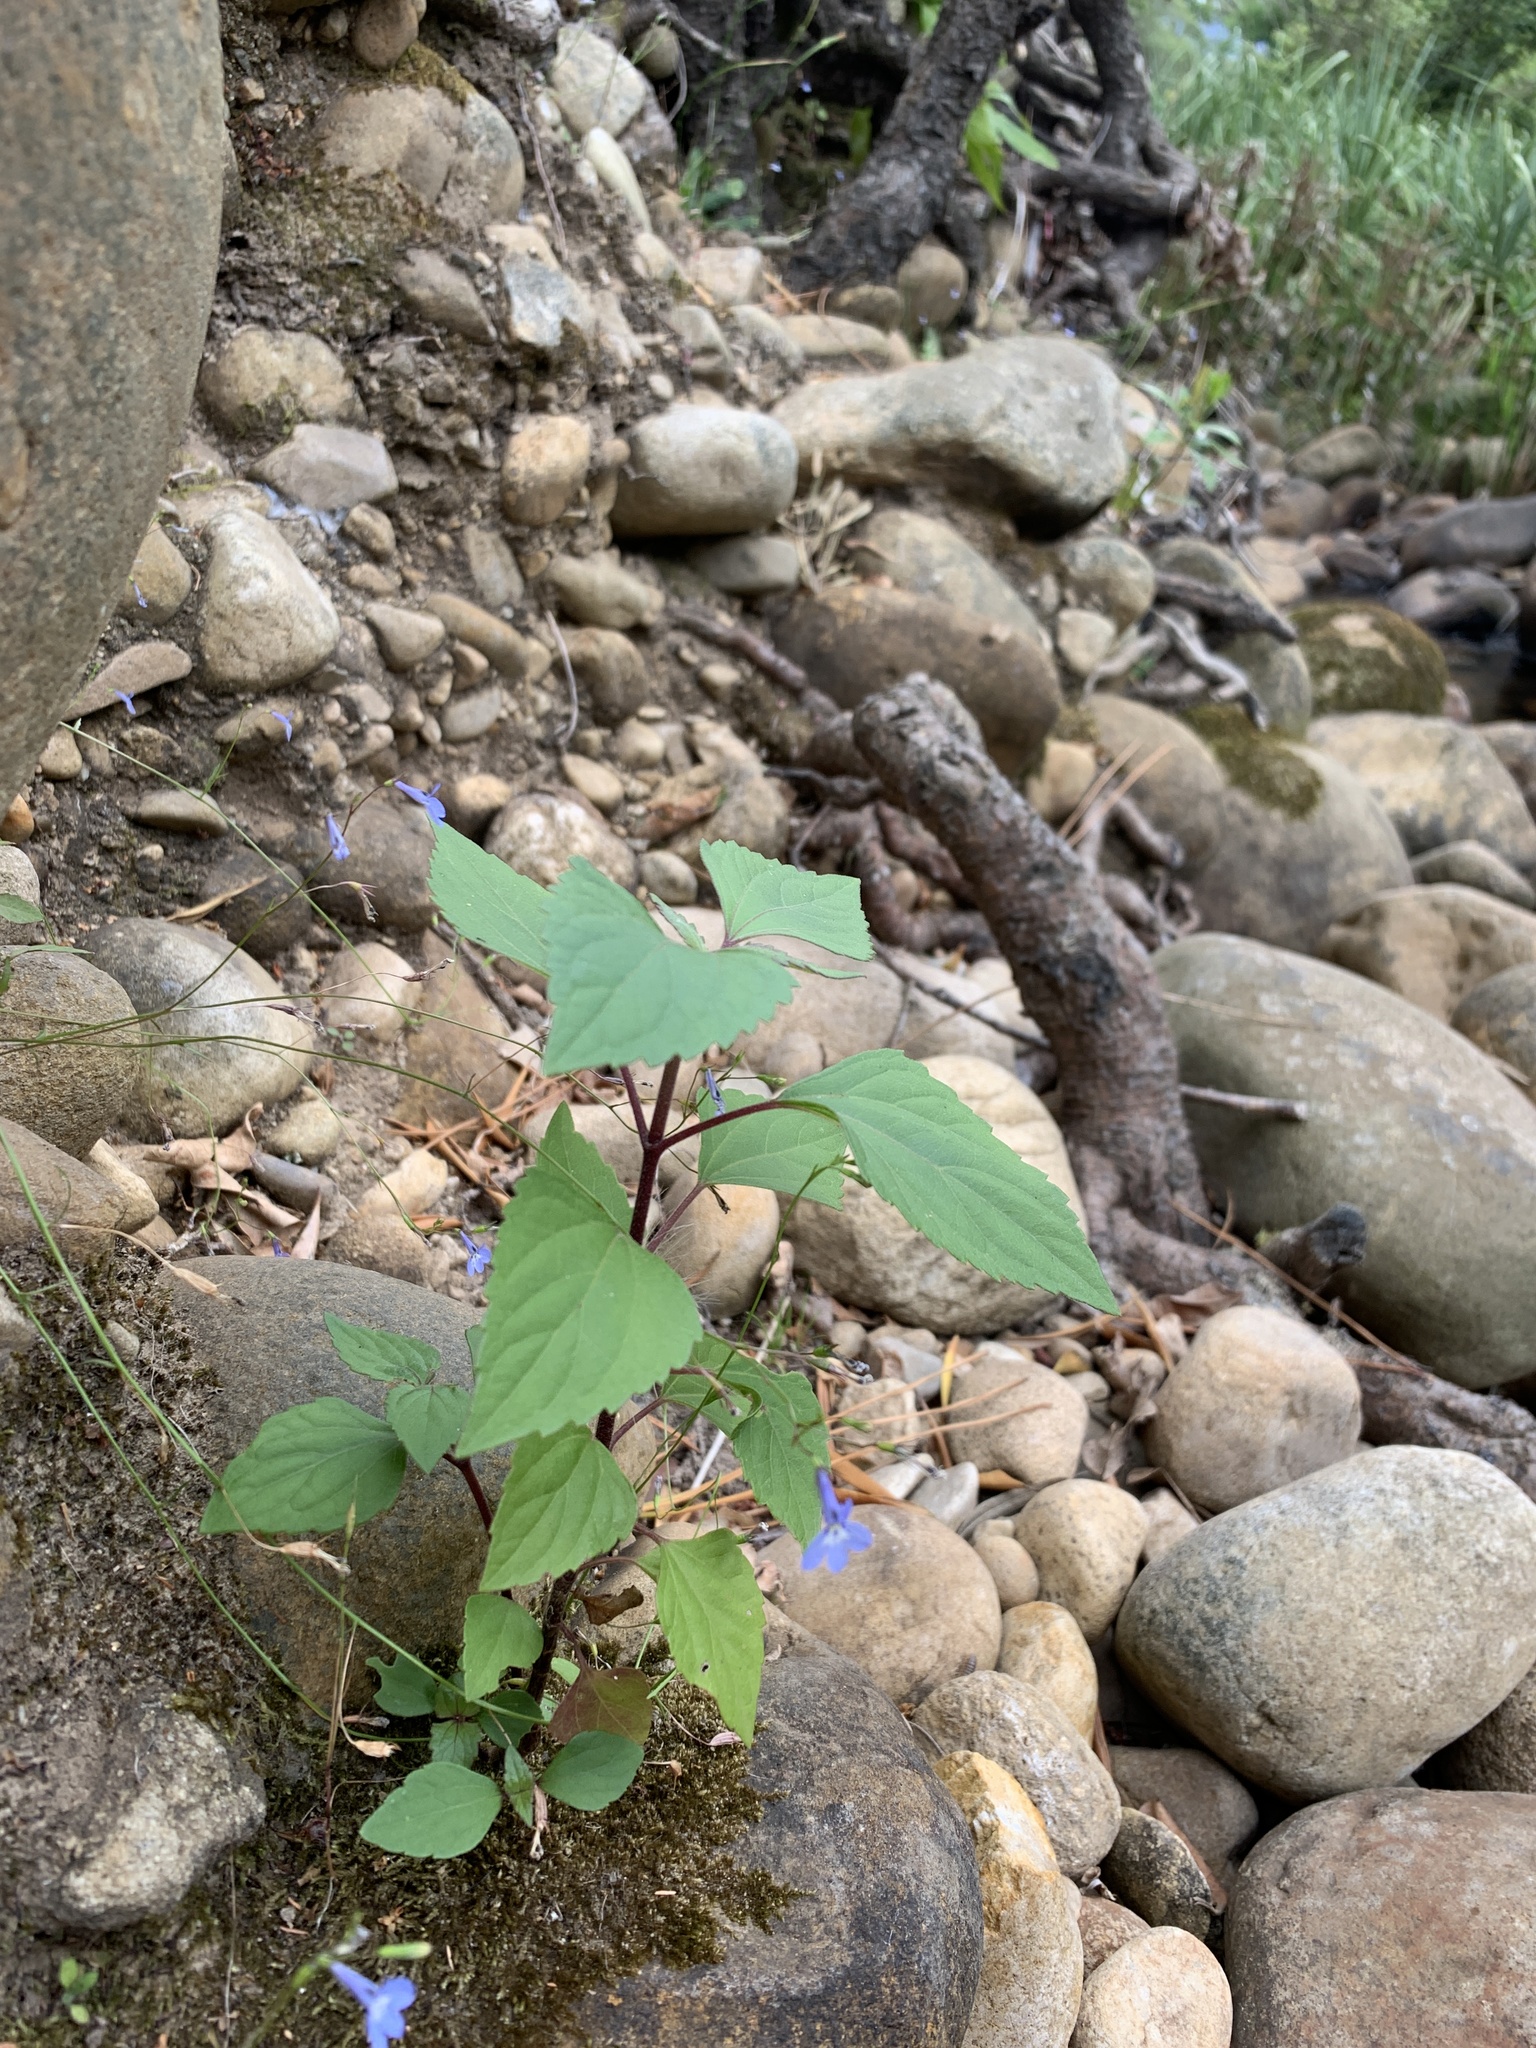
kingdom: Plantae
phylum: Tracheophyta
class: Magnoliopsida
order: Asterales
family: Asteraceae
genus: Ageratina
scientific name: Ageratina adenophora
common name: Sticky snakeroot
